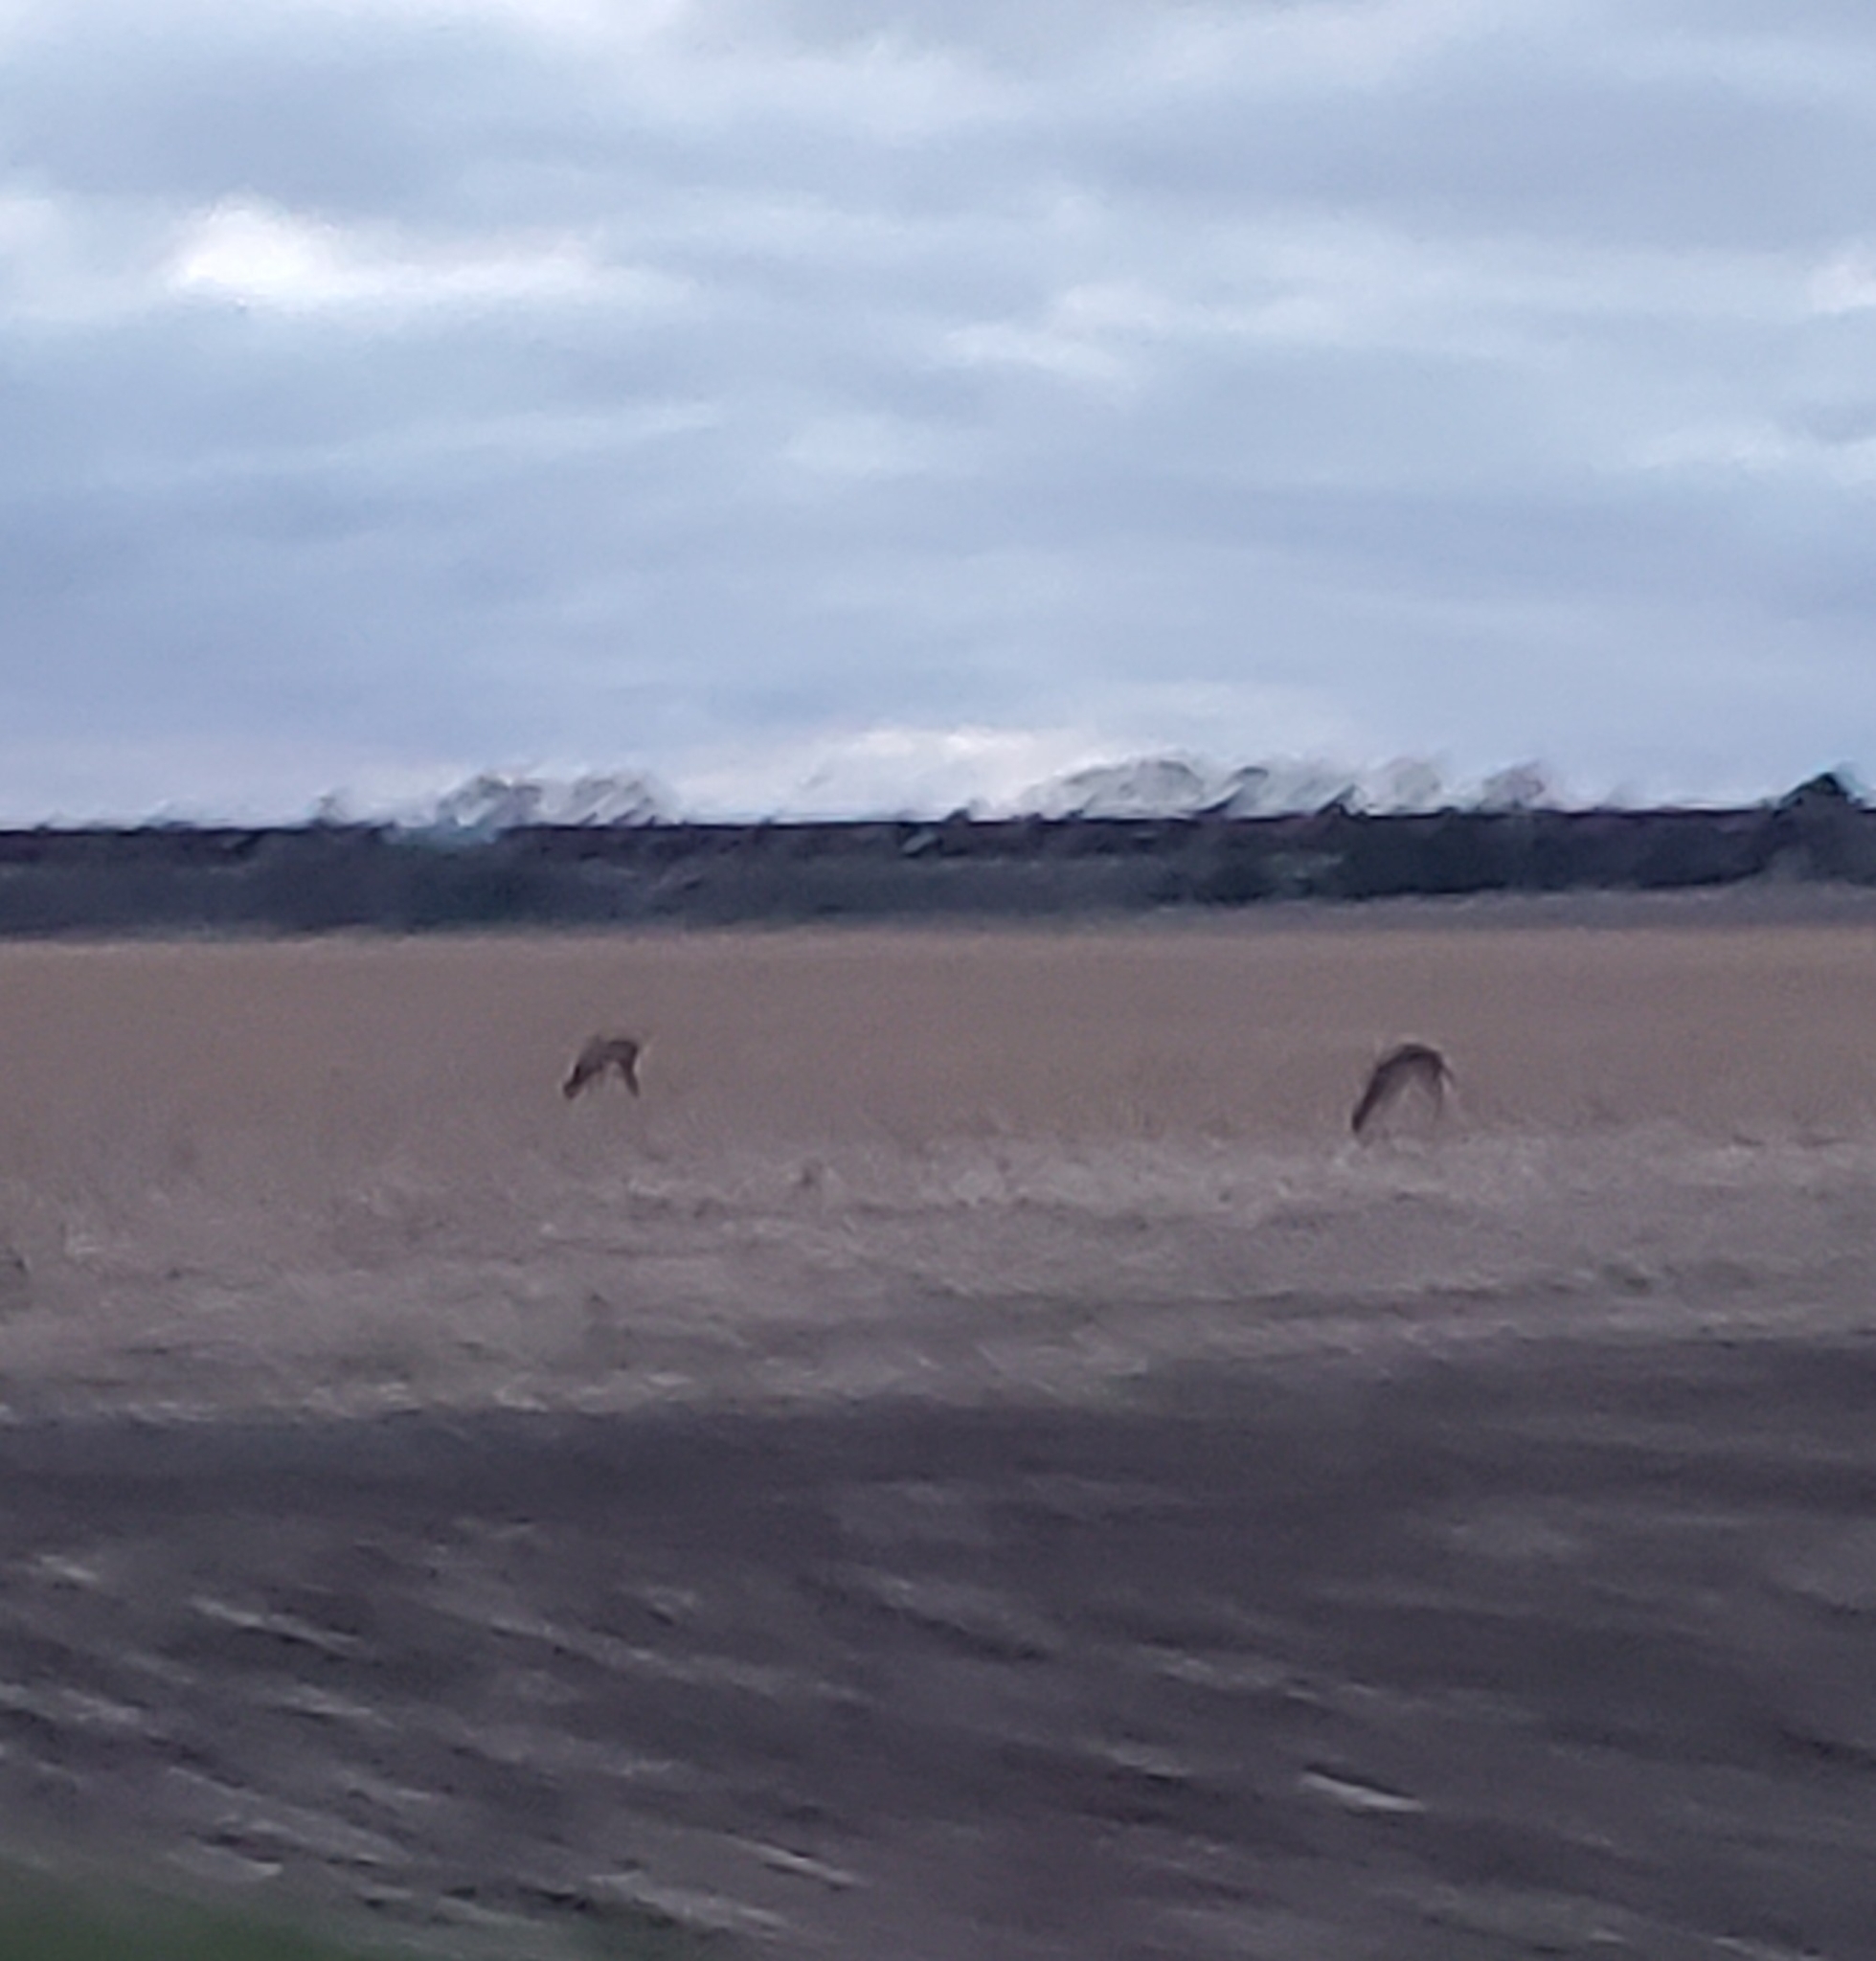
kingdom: Animalia
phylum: Chordata
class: Mammalia
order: Artiodactyla
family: Cervidae
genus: Odocoileus
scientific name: Odocoileus virginianus
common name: White-tailed deer
